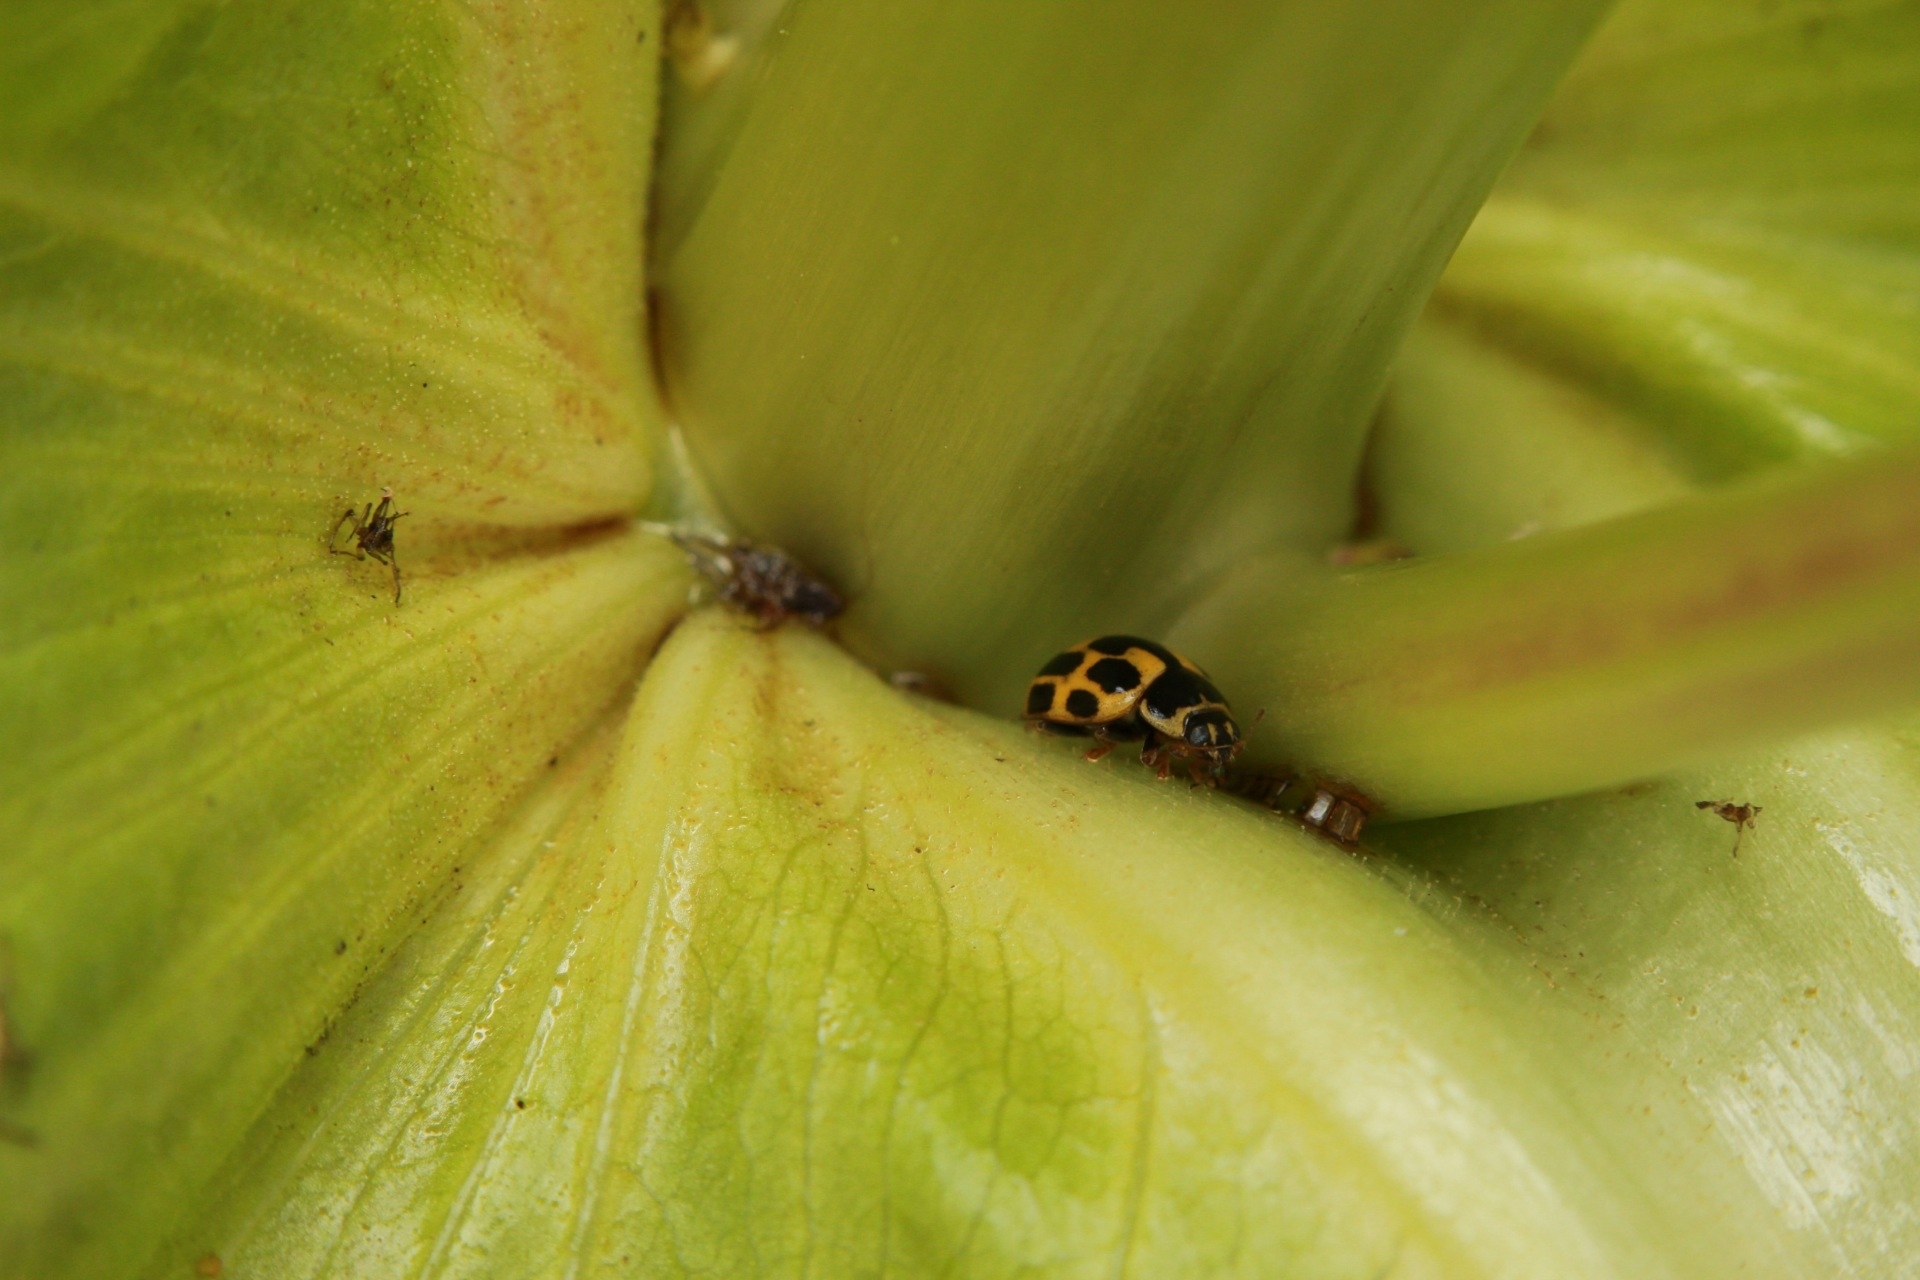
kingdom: Animalia
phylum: Arthropoda
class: Insecta
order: Coleoptera
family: Coccinellidae
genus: Propylaea
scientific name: Propylaea quatuordecimpunctata
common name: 14-spotted ladybird beetle
